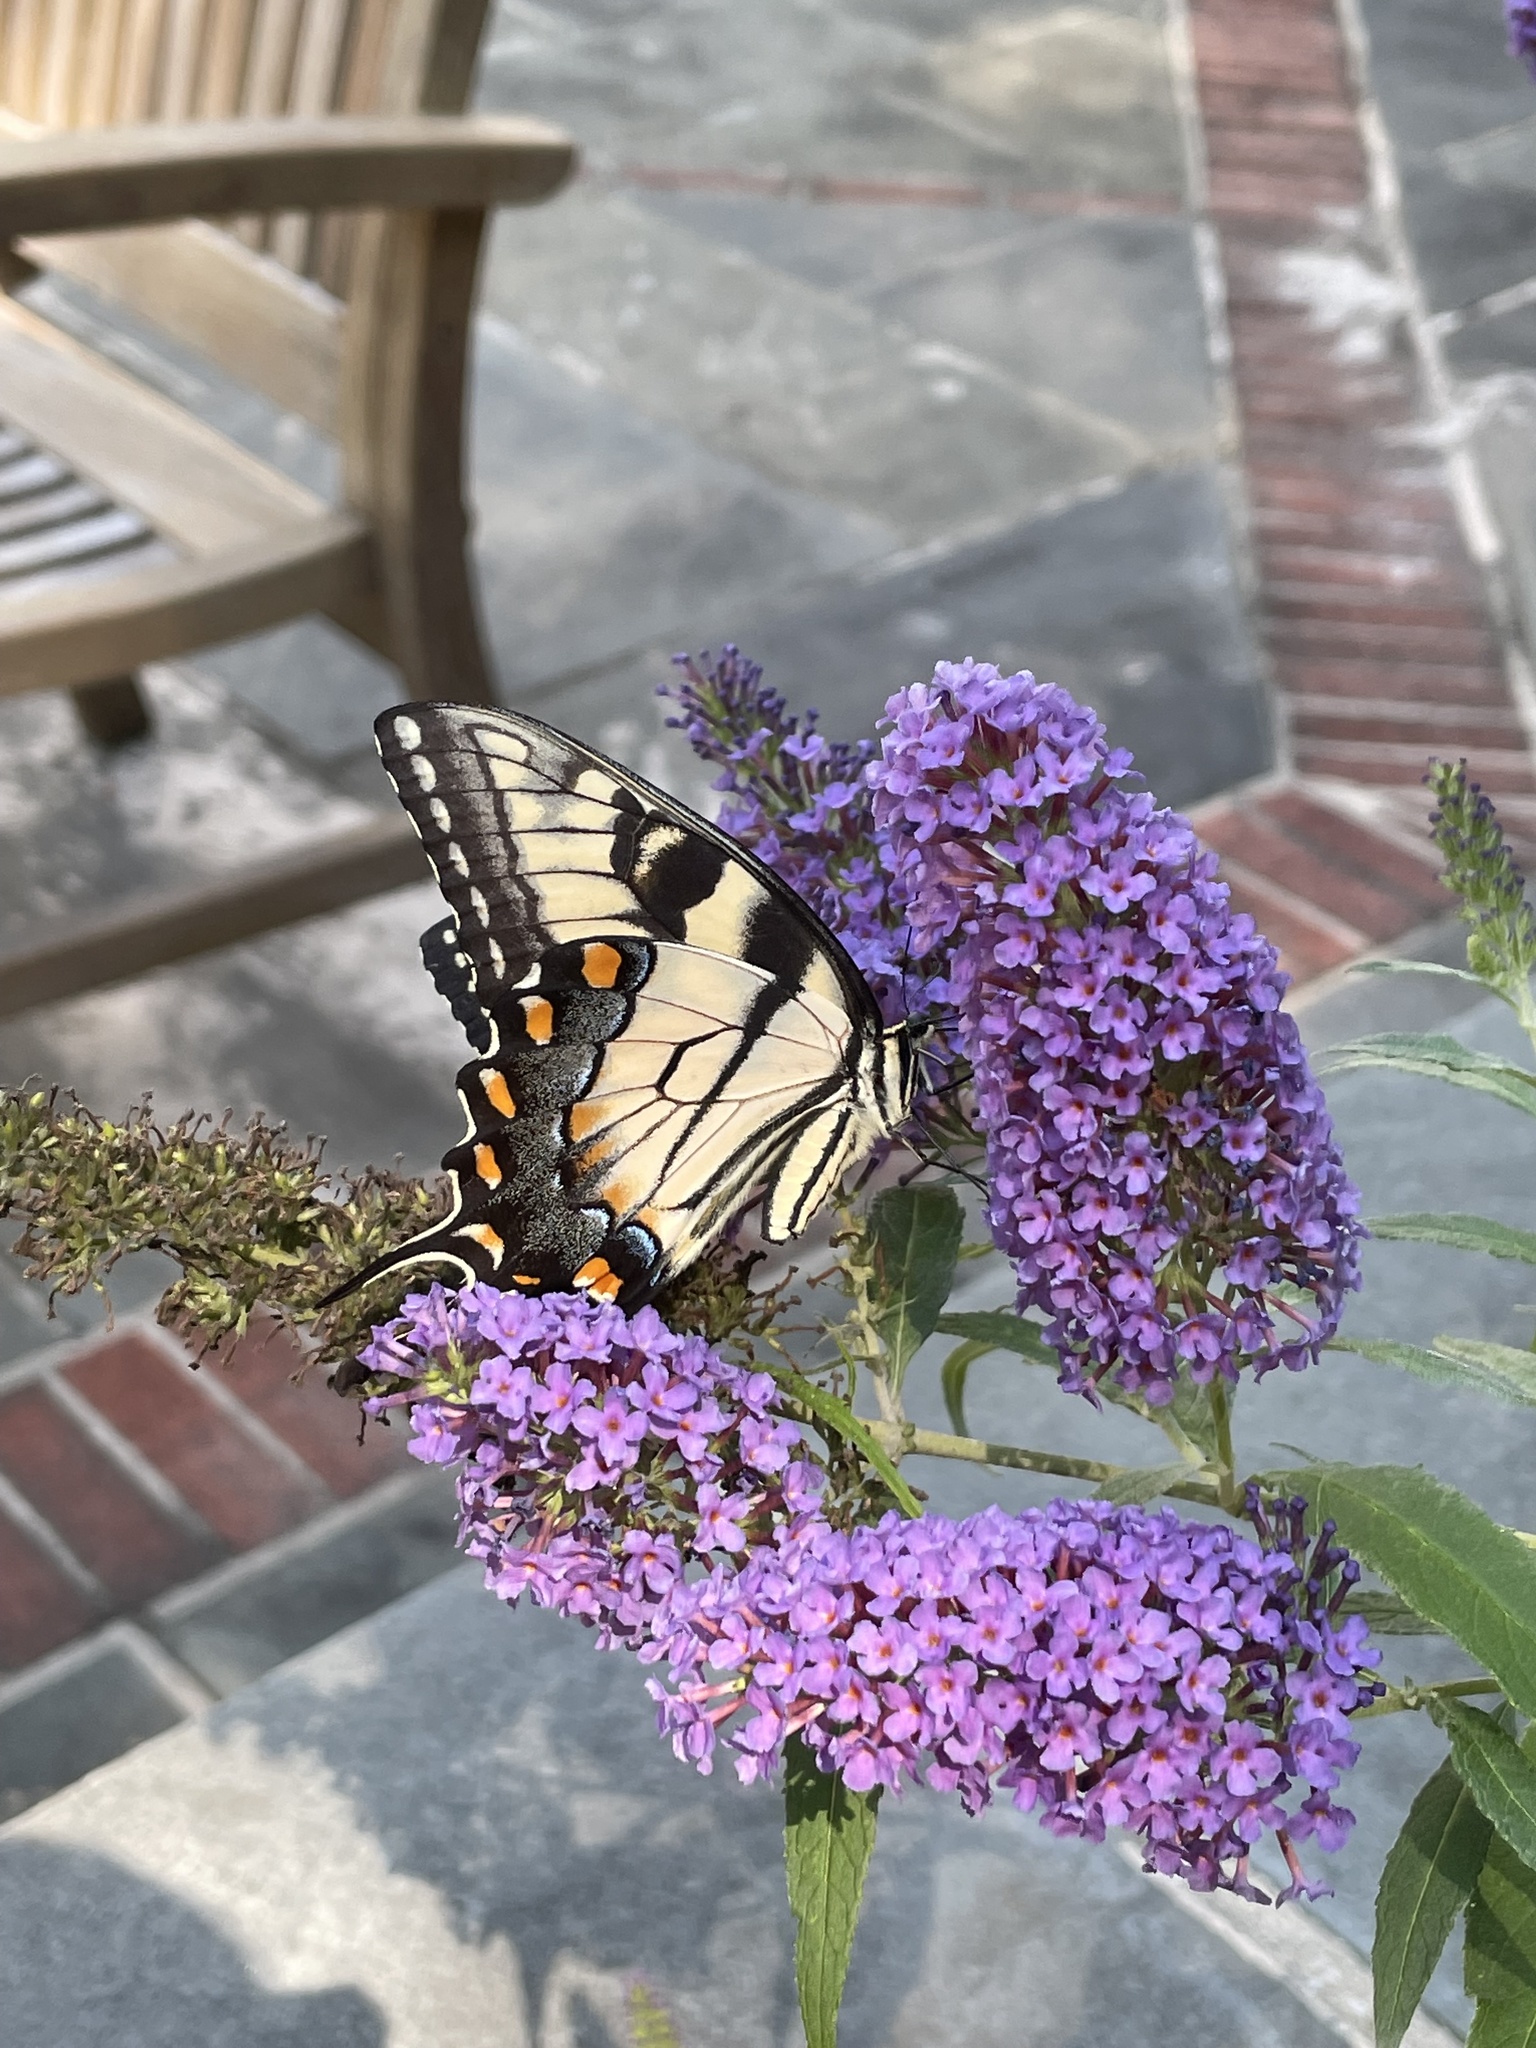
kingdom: Animalia
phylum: Arthropoda
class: Insecta
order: Lepidoptera
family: Papilionidae
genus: Papilio
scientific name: Papilio glaucus
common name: Tiger swallowtail
